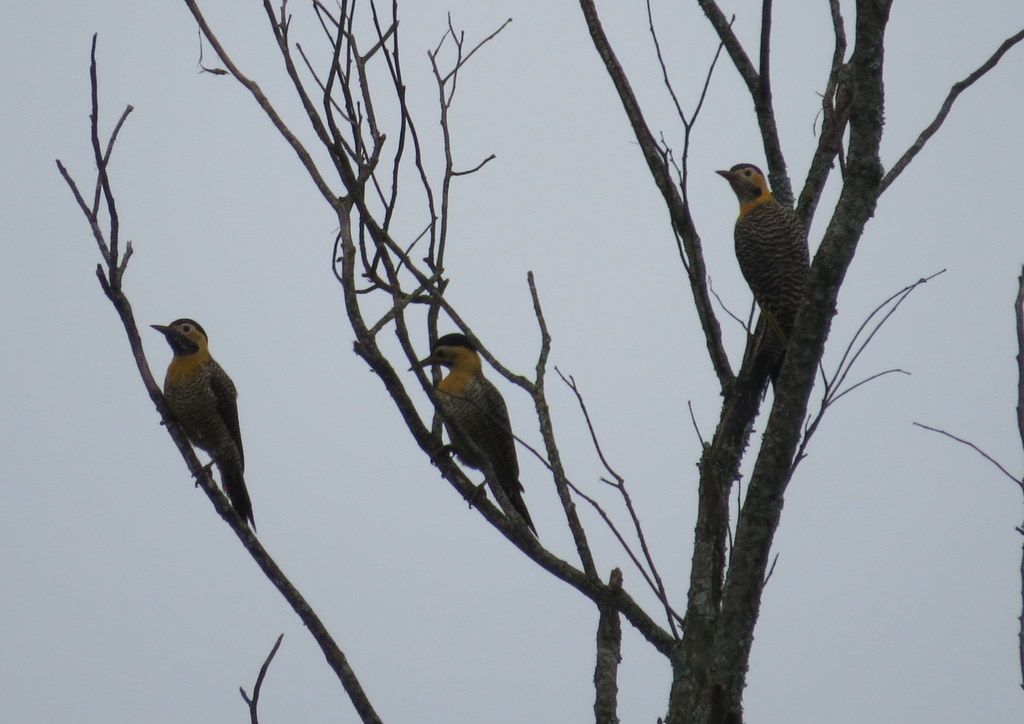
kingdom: Animalia
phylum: Chordata
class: Aves
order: Piciformes
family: Picidae
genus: Colaptes
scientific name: Colaptes campestris
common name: Campo flicker
